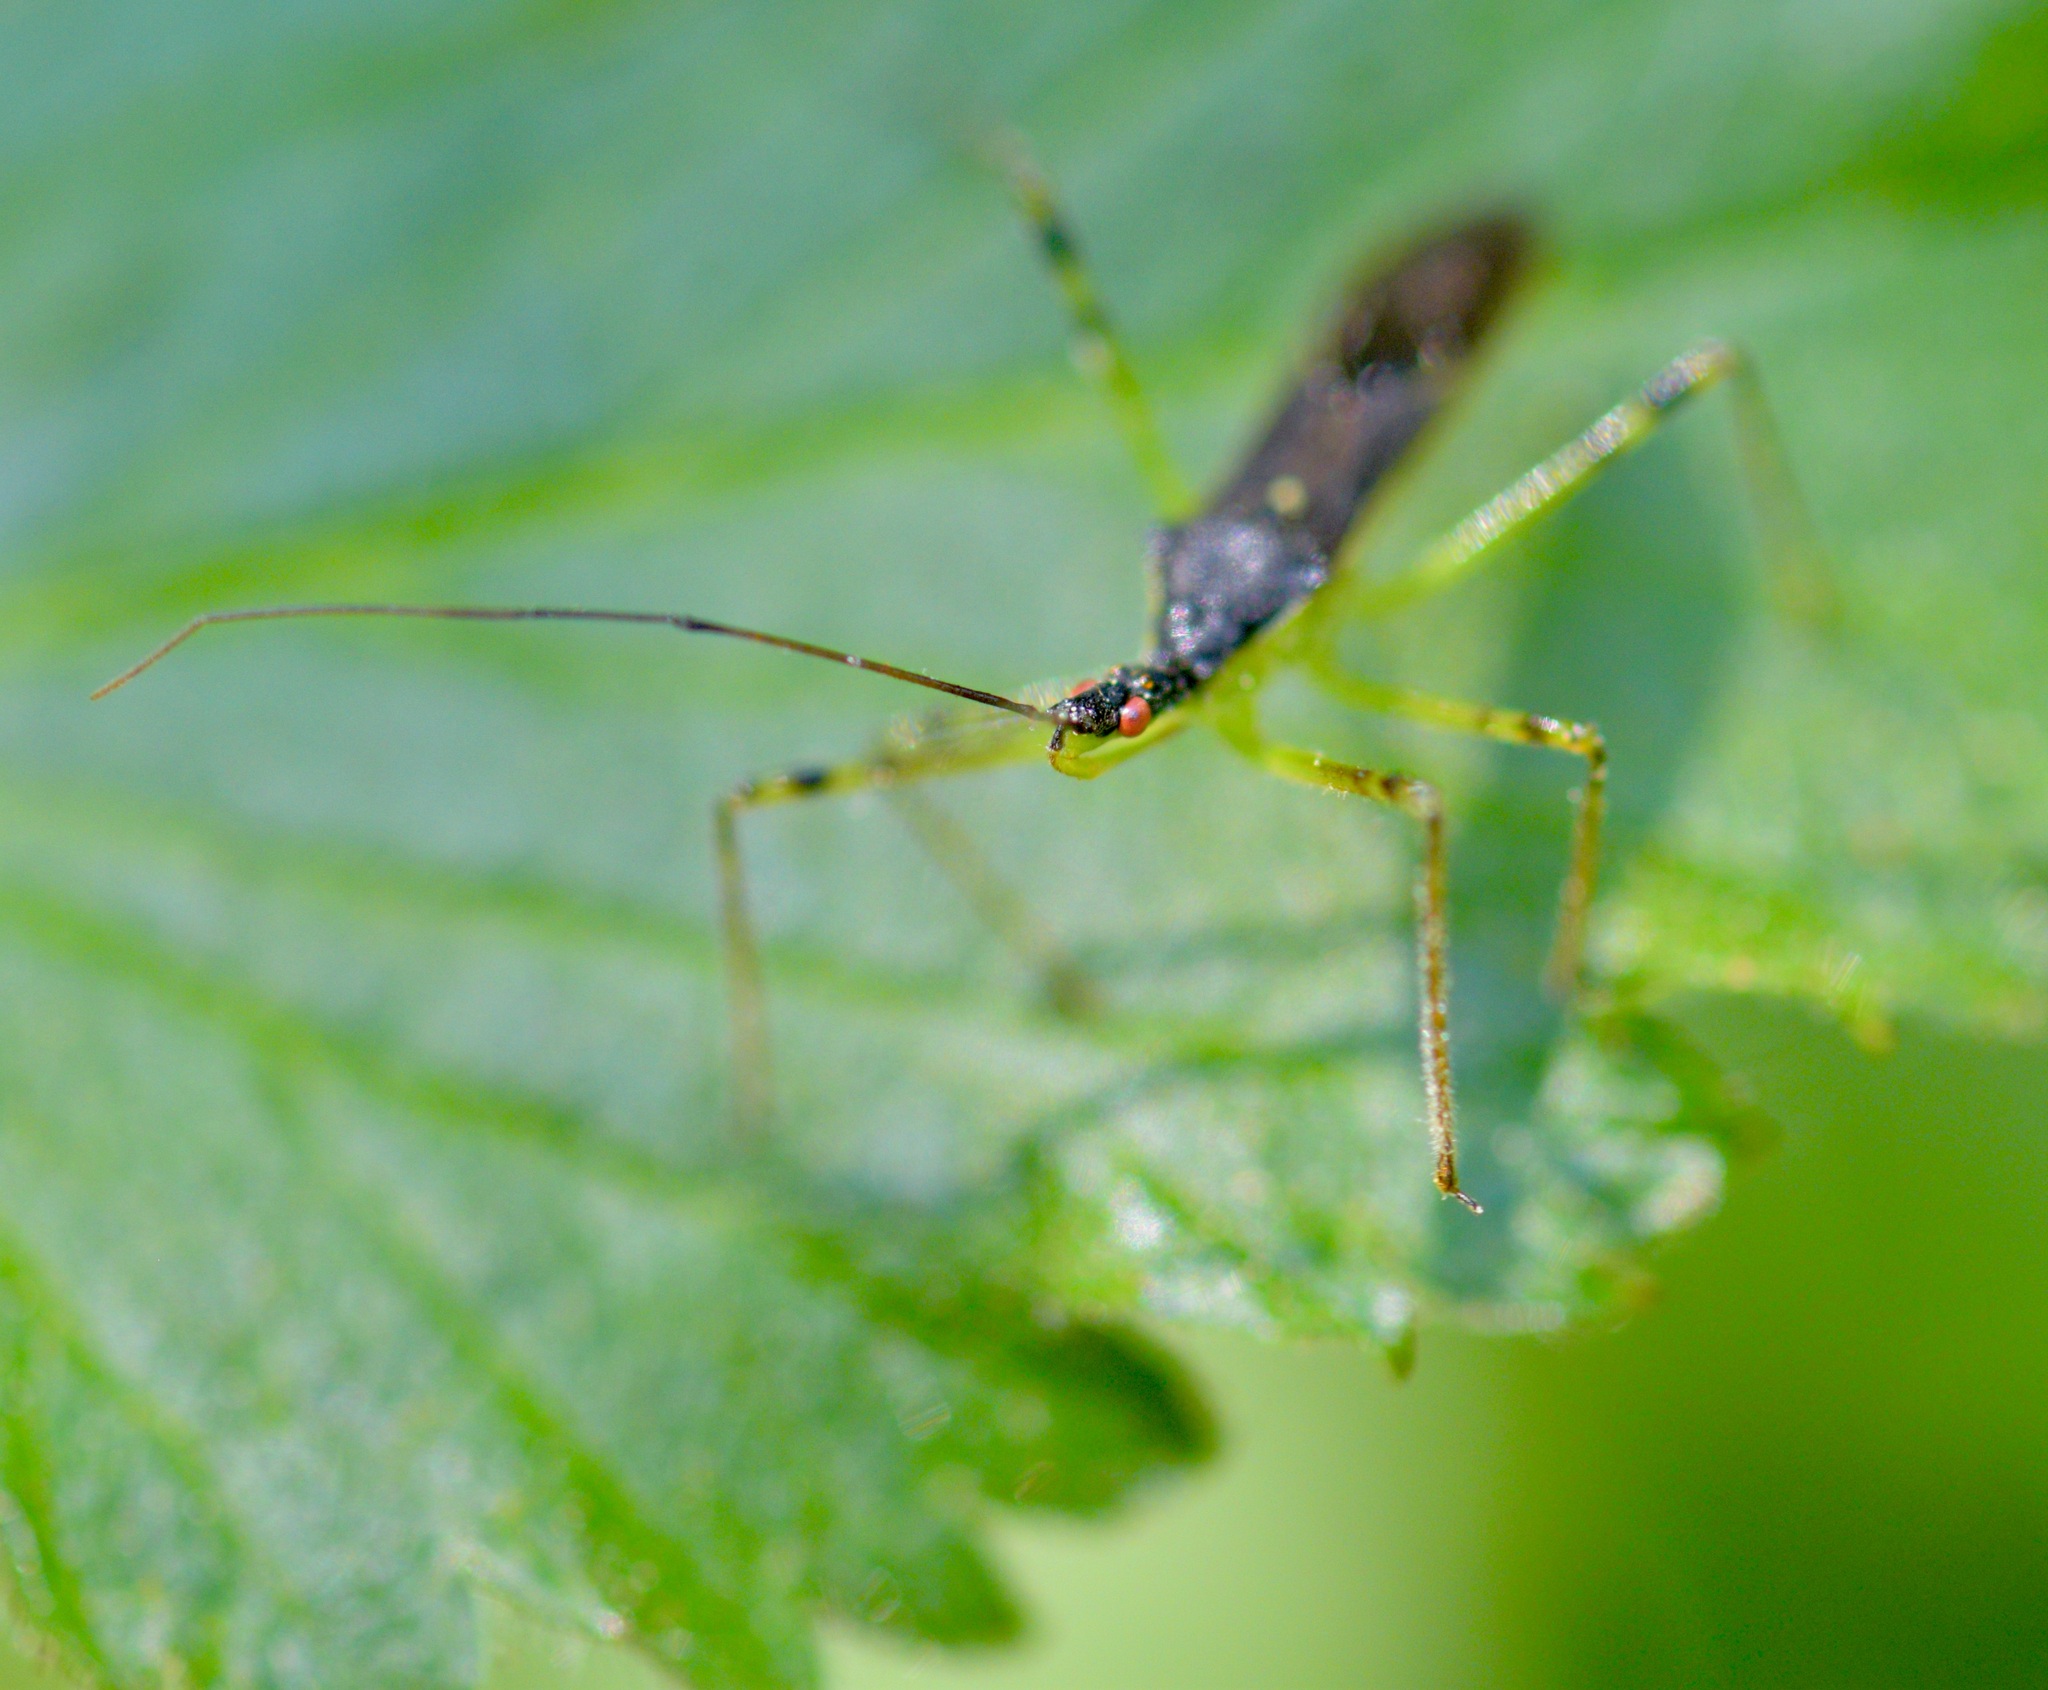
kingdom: Animalia
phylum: Arthropoda
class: Insecta
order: Hemiptera
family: Reduviidae
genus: Zelus
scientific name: Zelus luridus
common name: Pale green assassin bug
